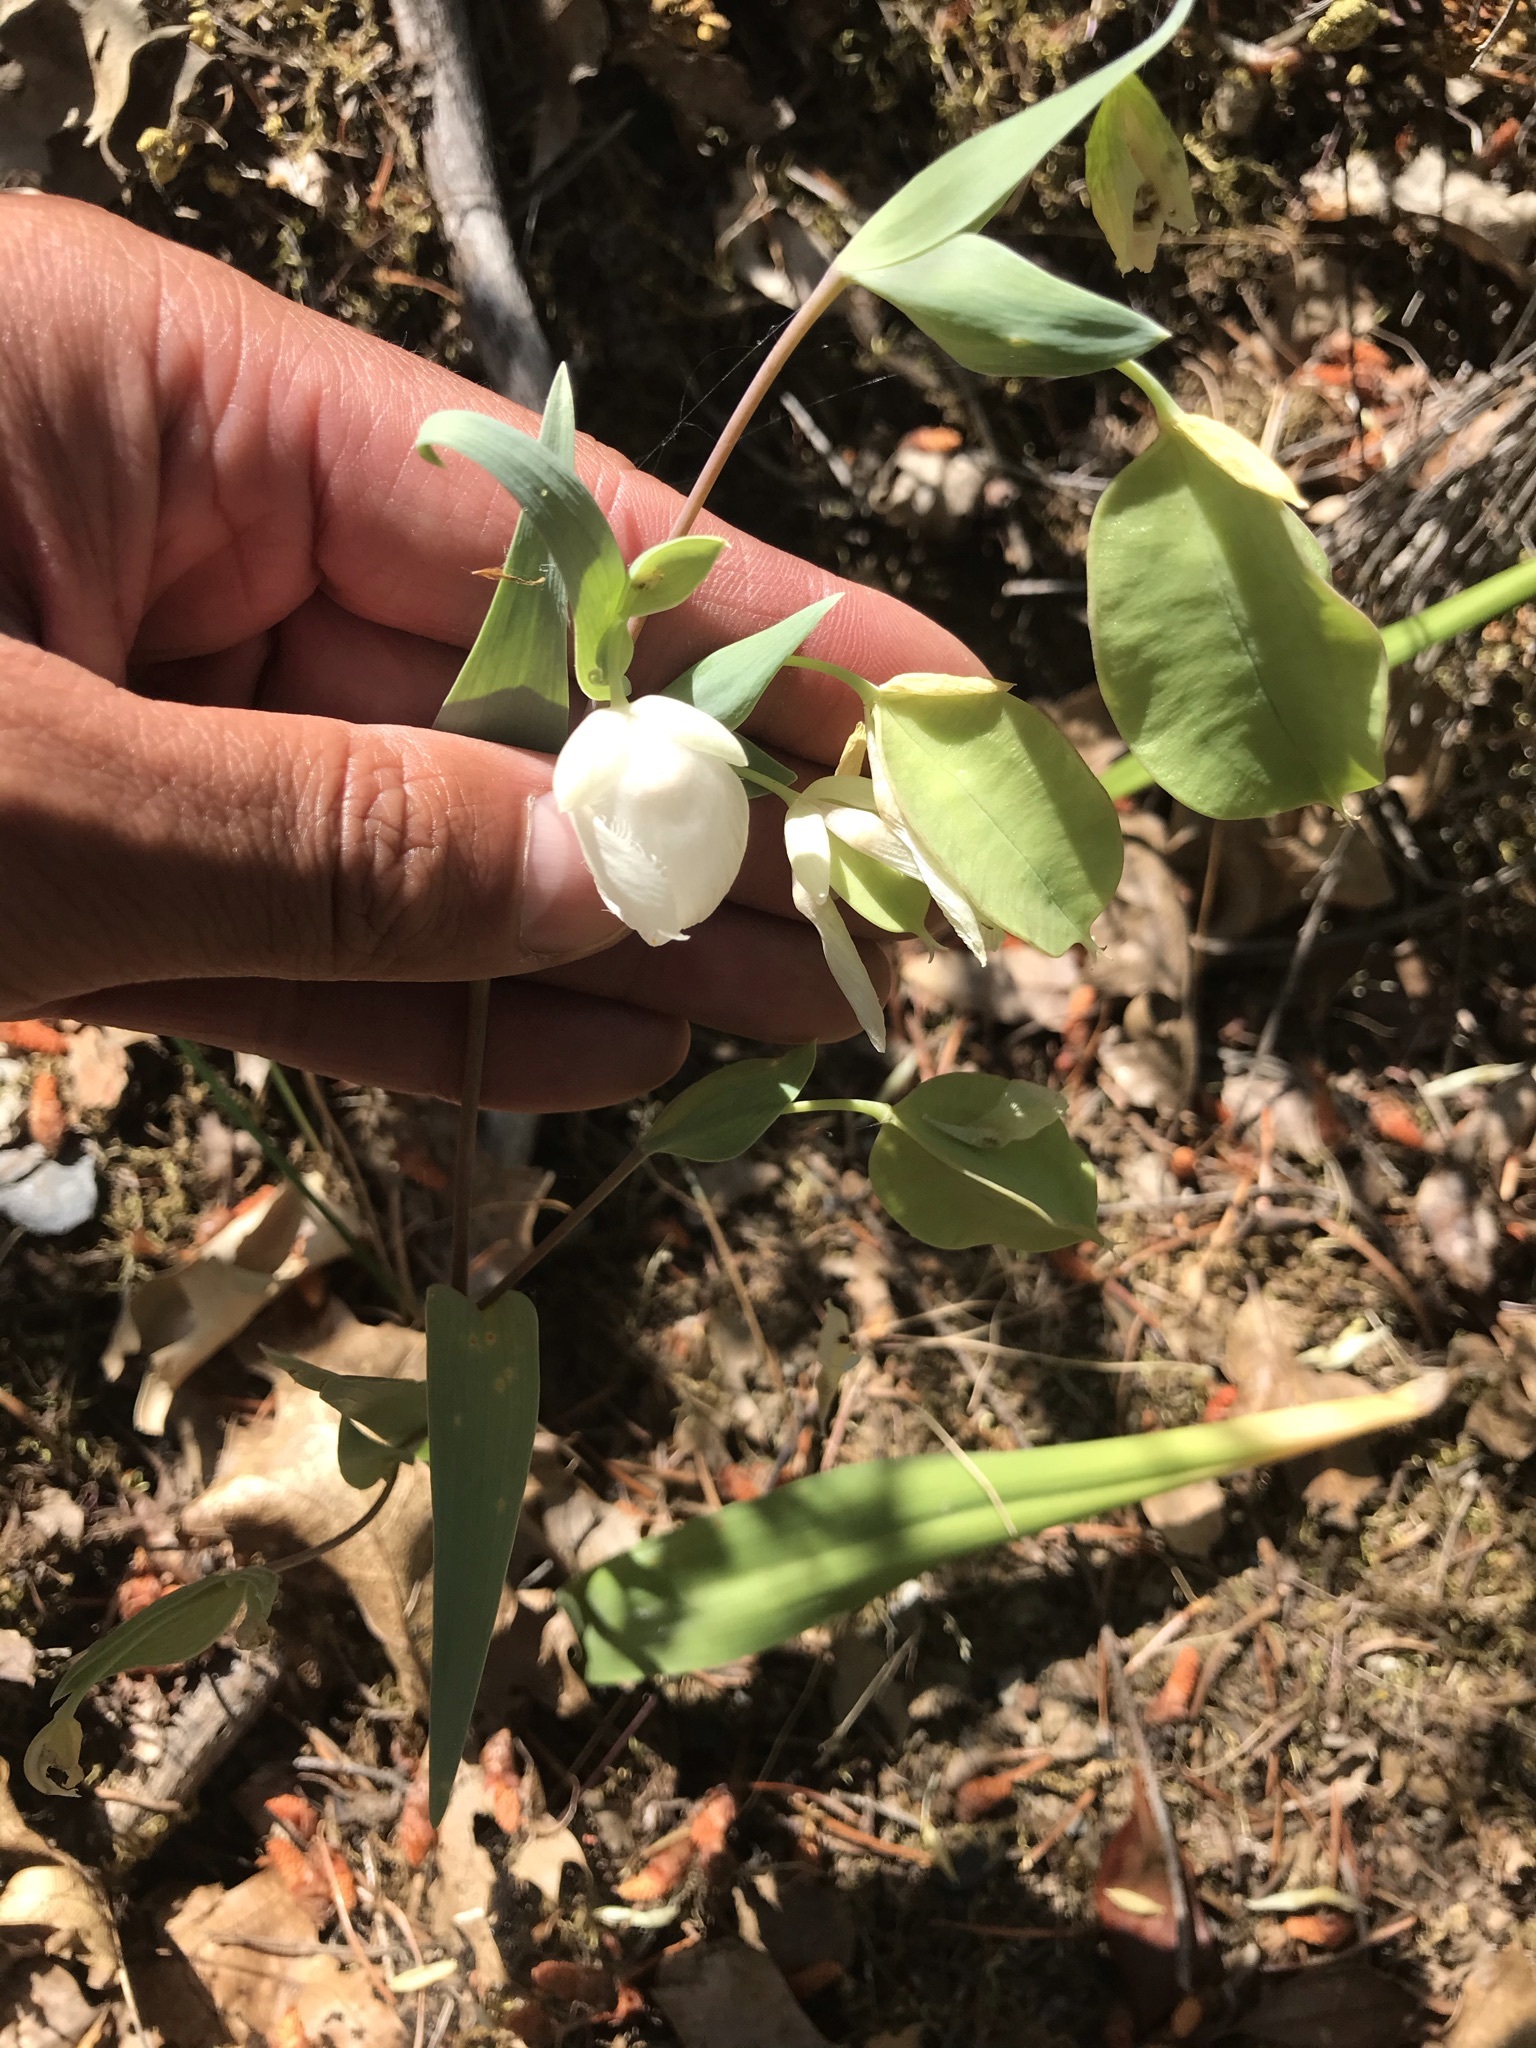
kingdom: Plantae
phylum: Tracheophyta
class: Liliopsida
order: Liliales
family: Liliaceae
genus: Calochortus
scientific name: Calochortus albus
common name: Fairy-lantern
